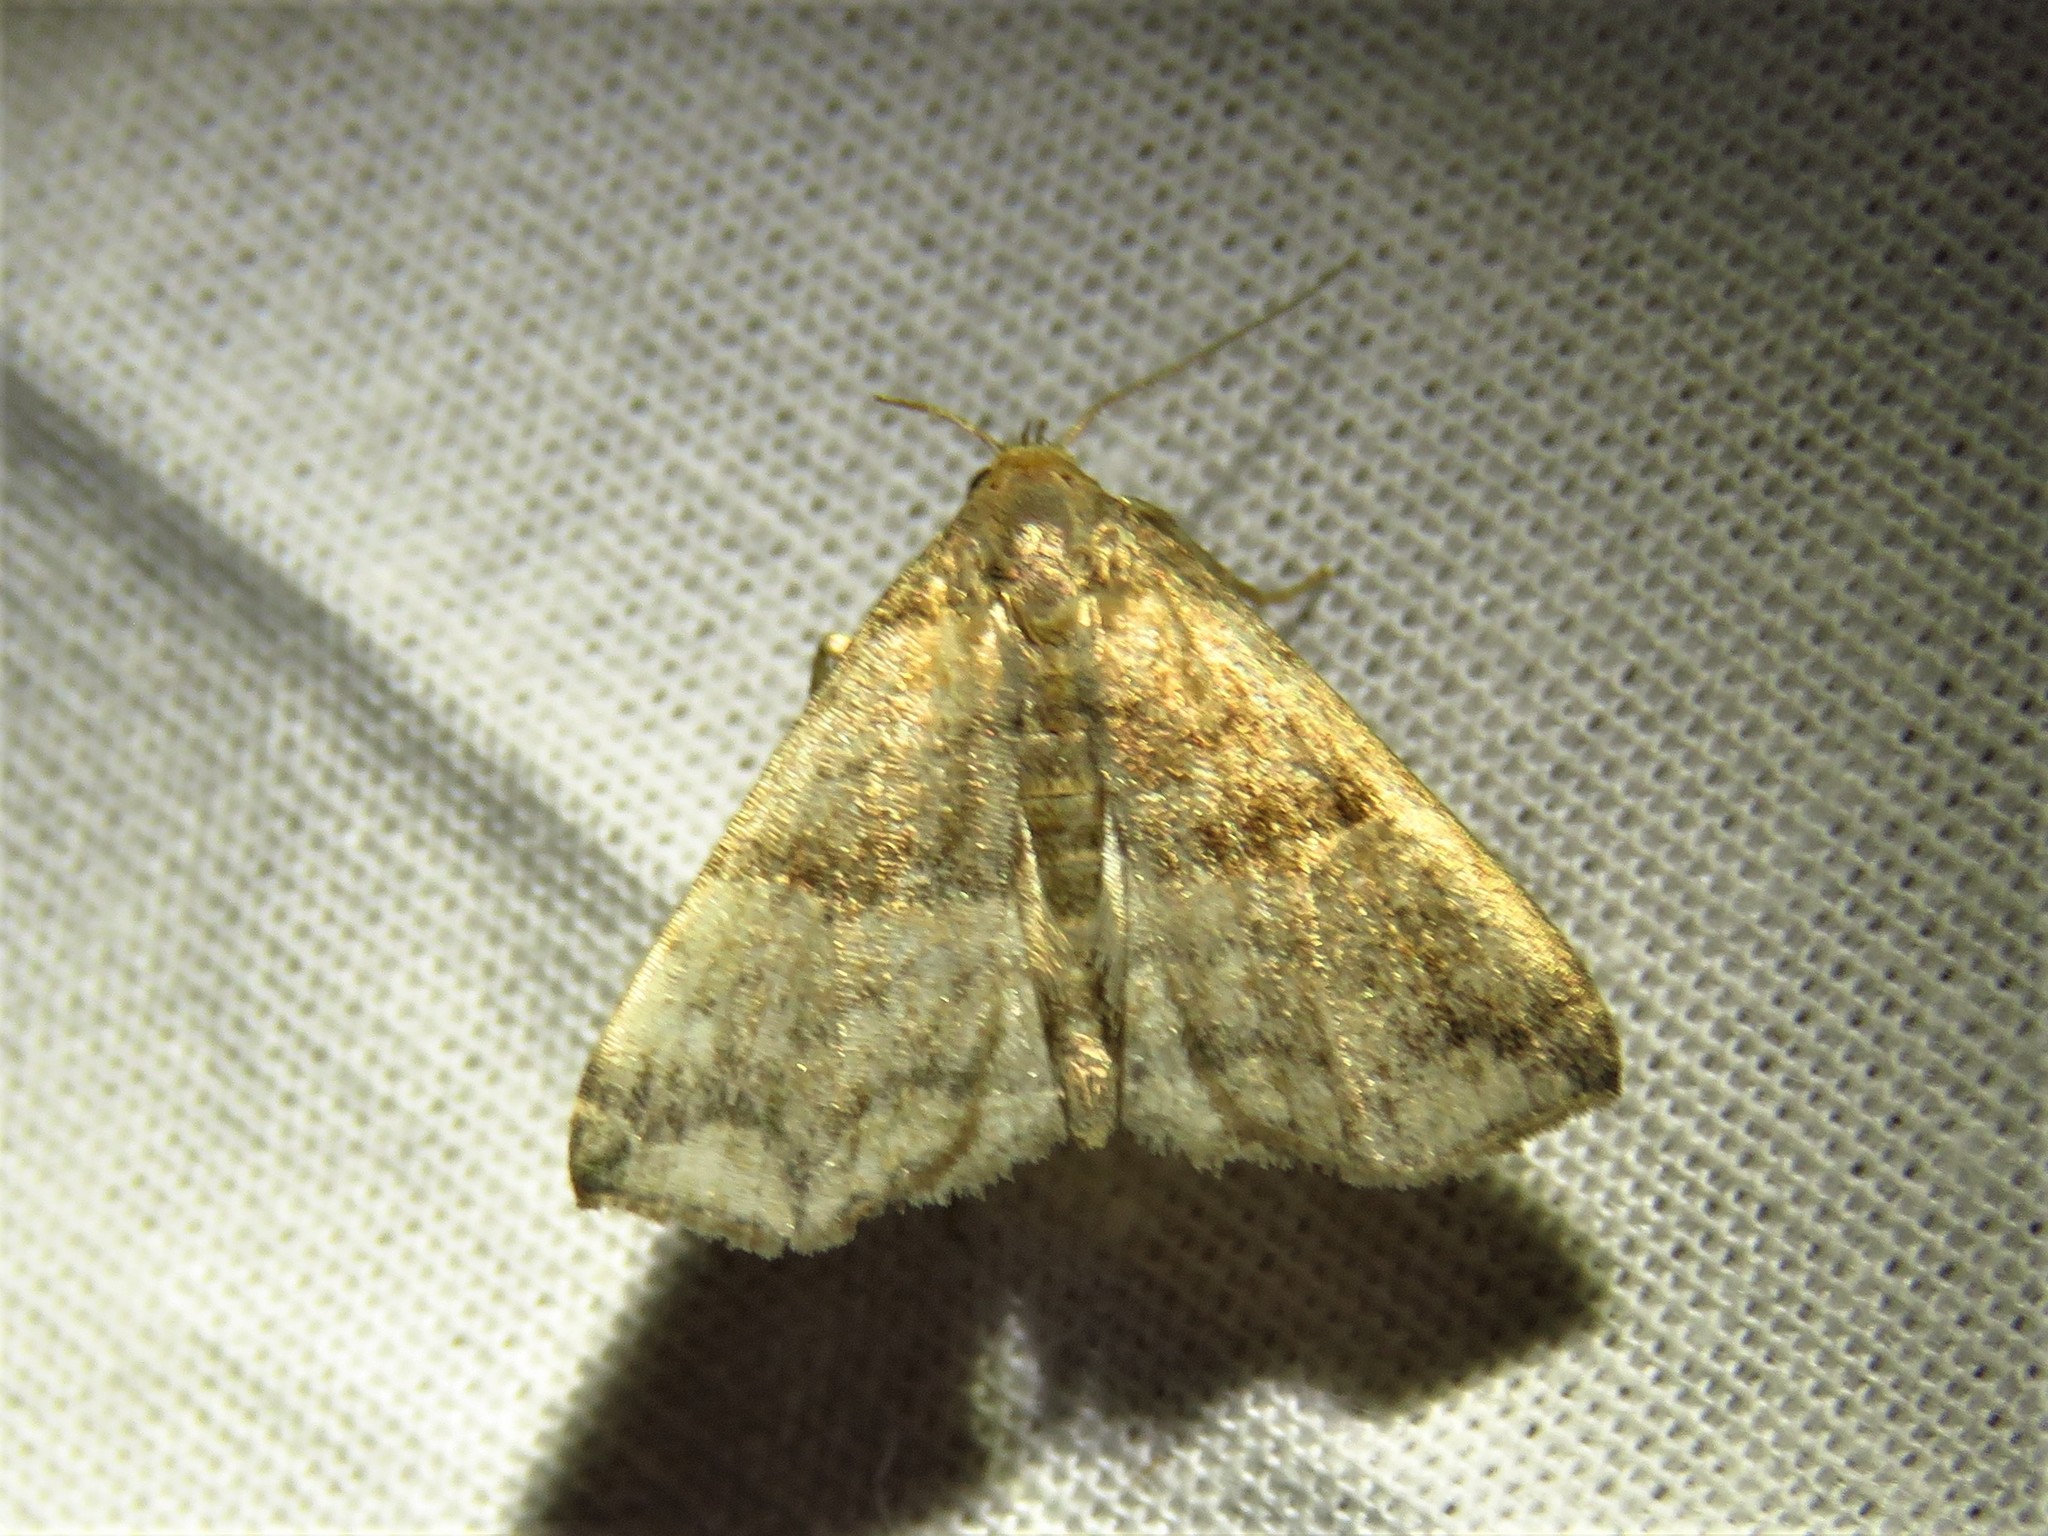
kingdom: Animalia
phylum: Arthropoda
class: Insecta
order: Lepidoptera
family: Erebidae
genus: Polypogon
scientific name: Polypogon Hipoepa fractalis
